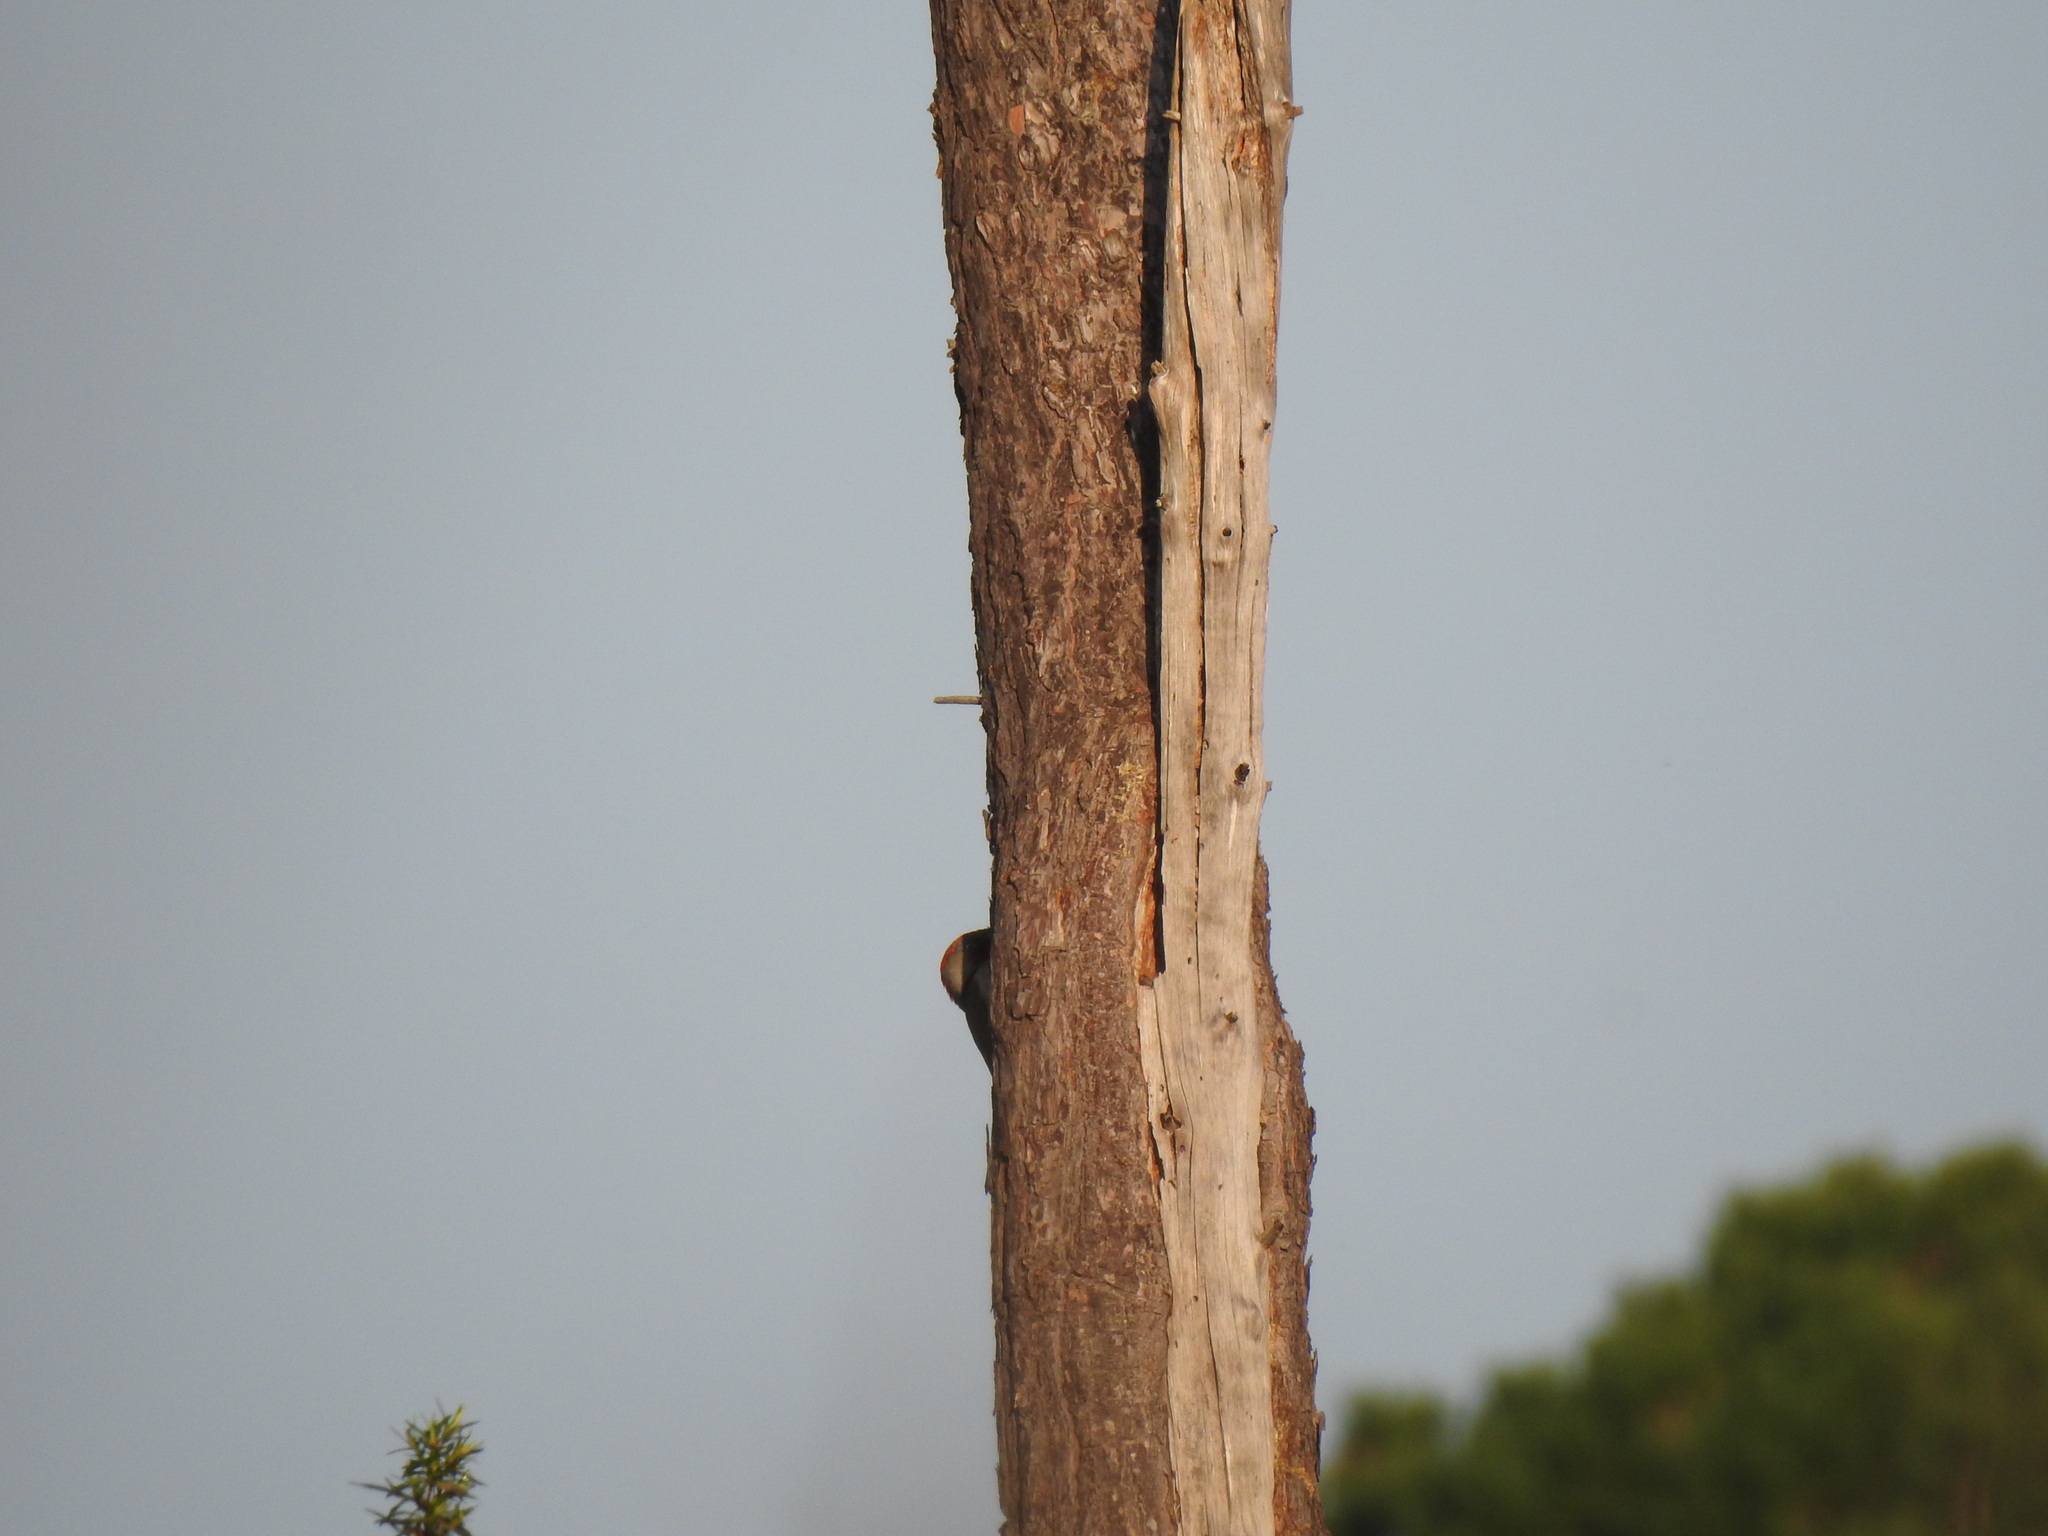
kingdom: Animalia
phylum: Chordata
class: Aves
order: Piciformes
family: Picidae
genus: Picus
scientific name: Picus sharpei
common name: Iberian green woodpecker
